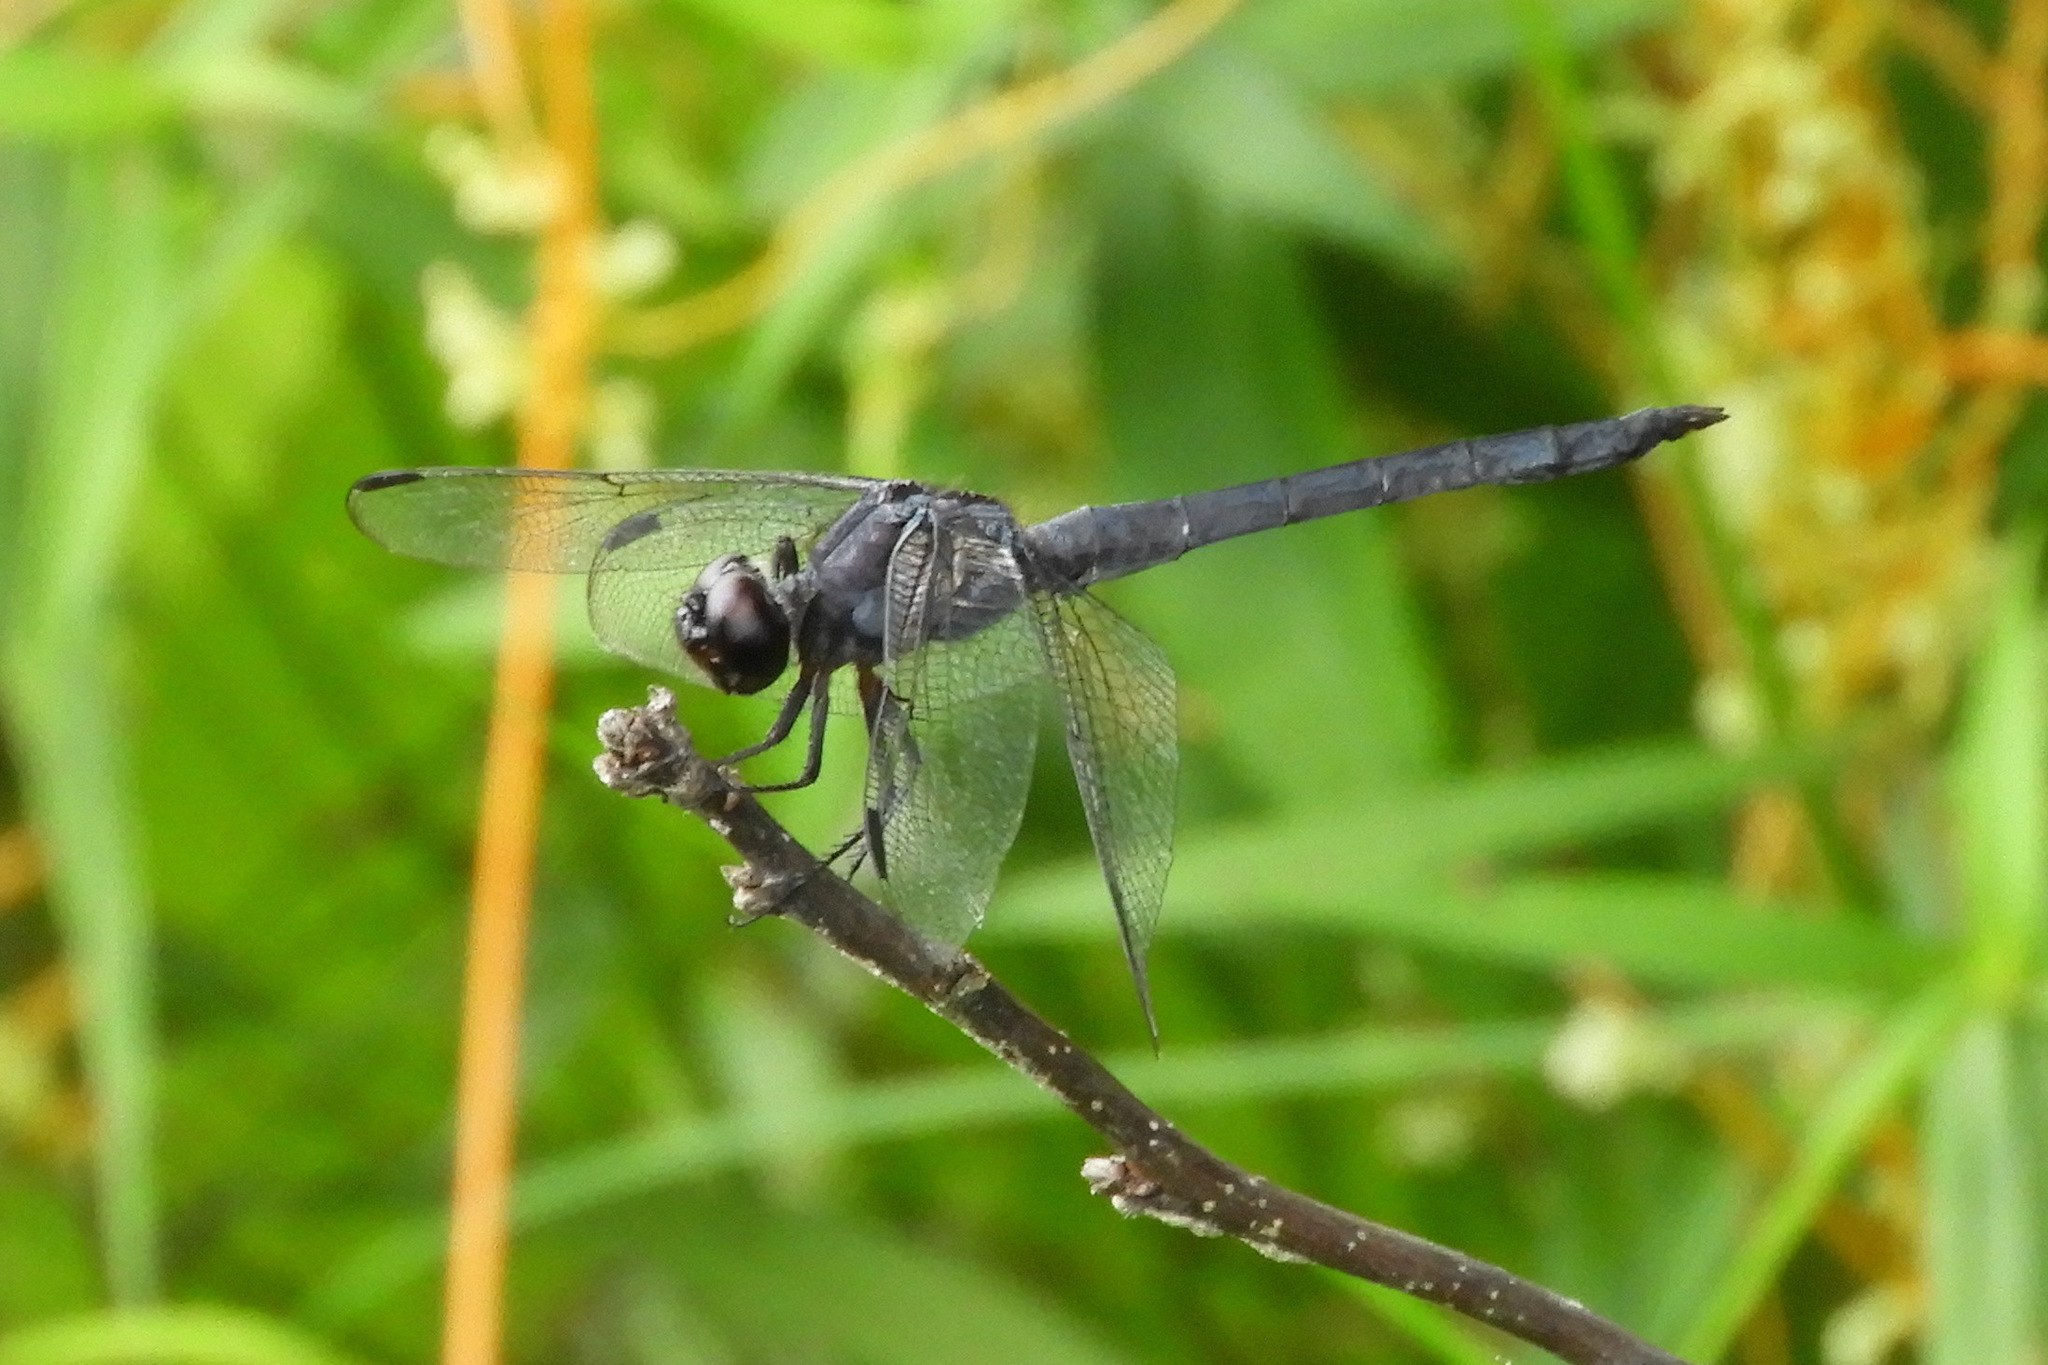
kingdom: Animalia
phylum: Arthropoda
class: Insecta
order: Odonata
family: Libellulidae
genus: Libellula
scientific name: Libellula incesta
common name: Slaty skimmer
